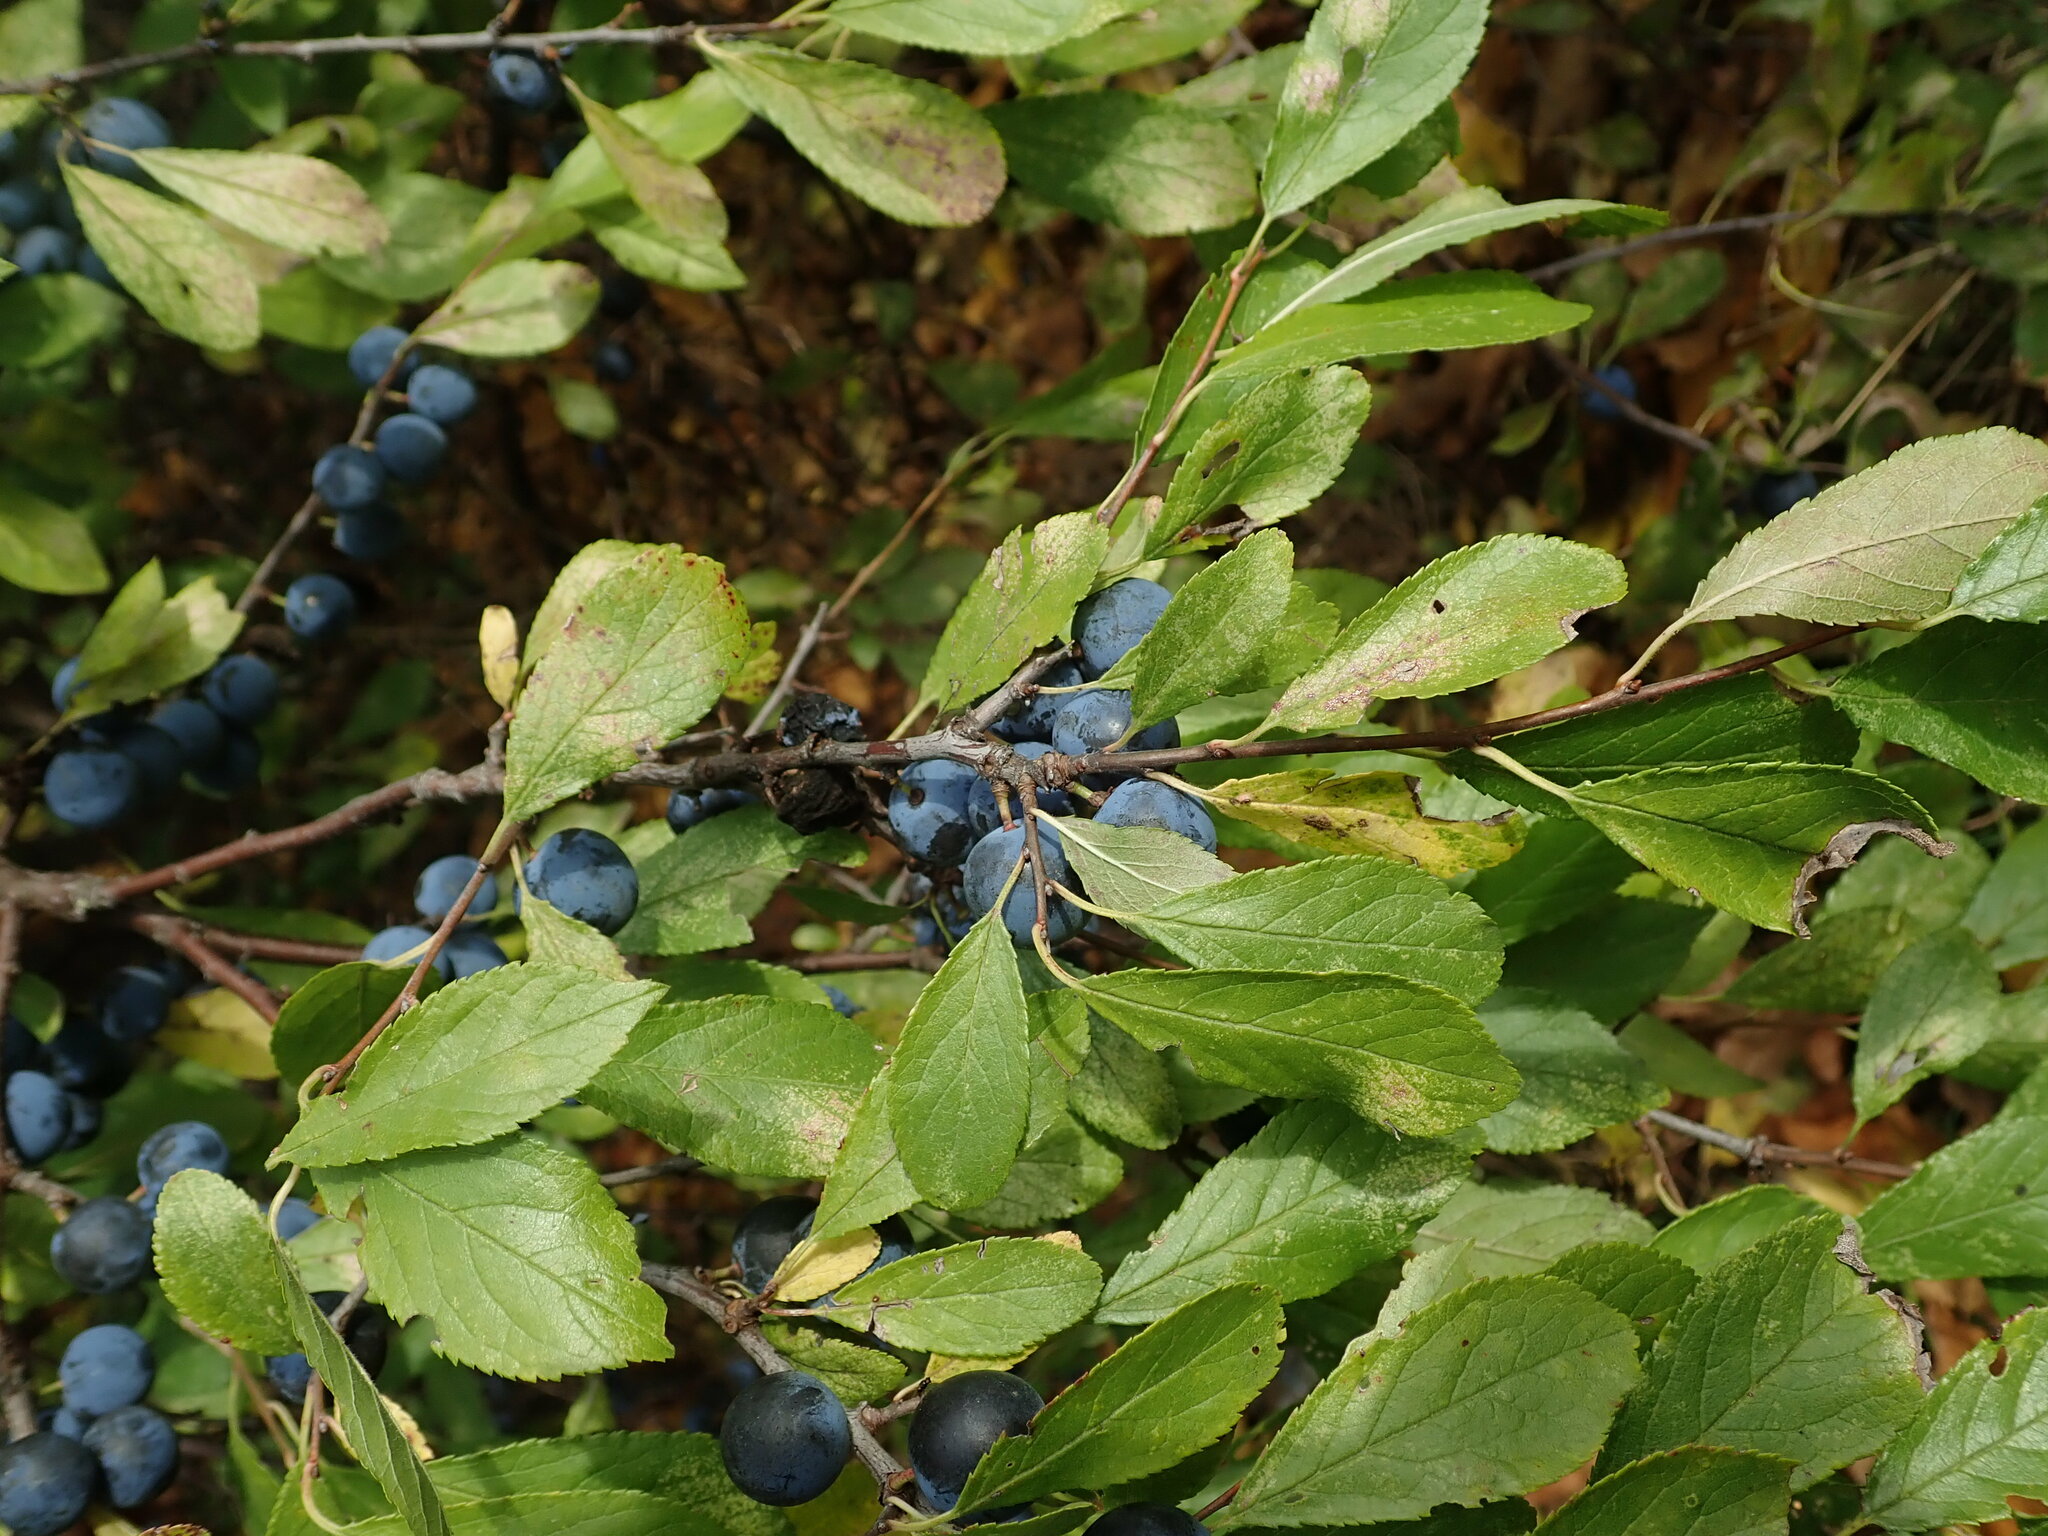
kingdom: Plantae
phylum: Tracheophyta
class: Magnoliopsida
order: Rosales
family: Rosaceae
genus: Prunus
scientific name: Prunus spinosa
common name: Blackthorn
